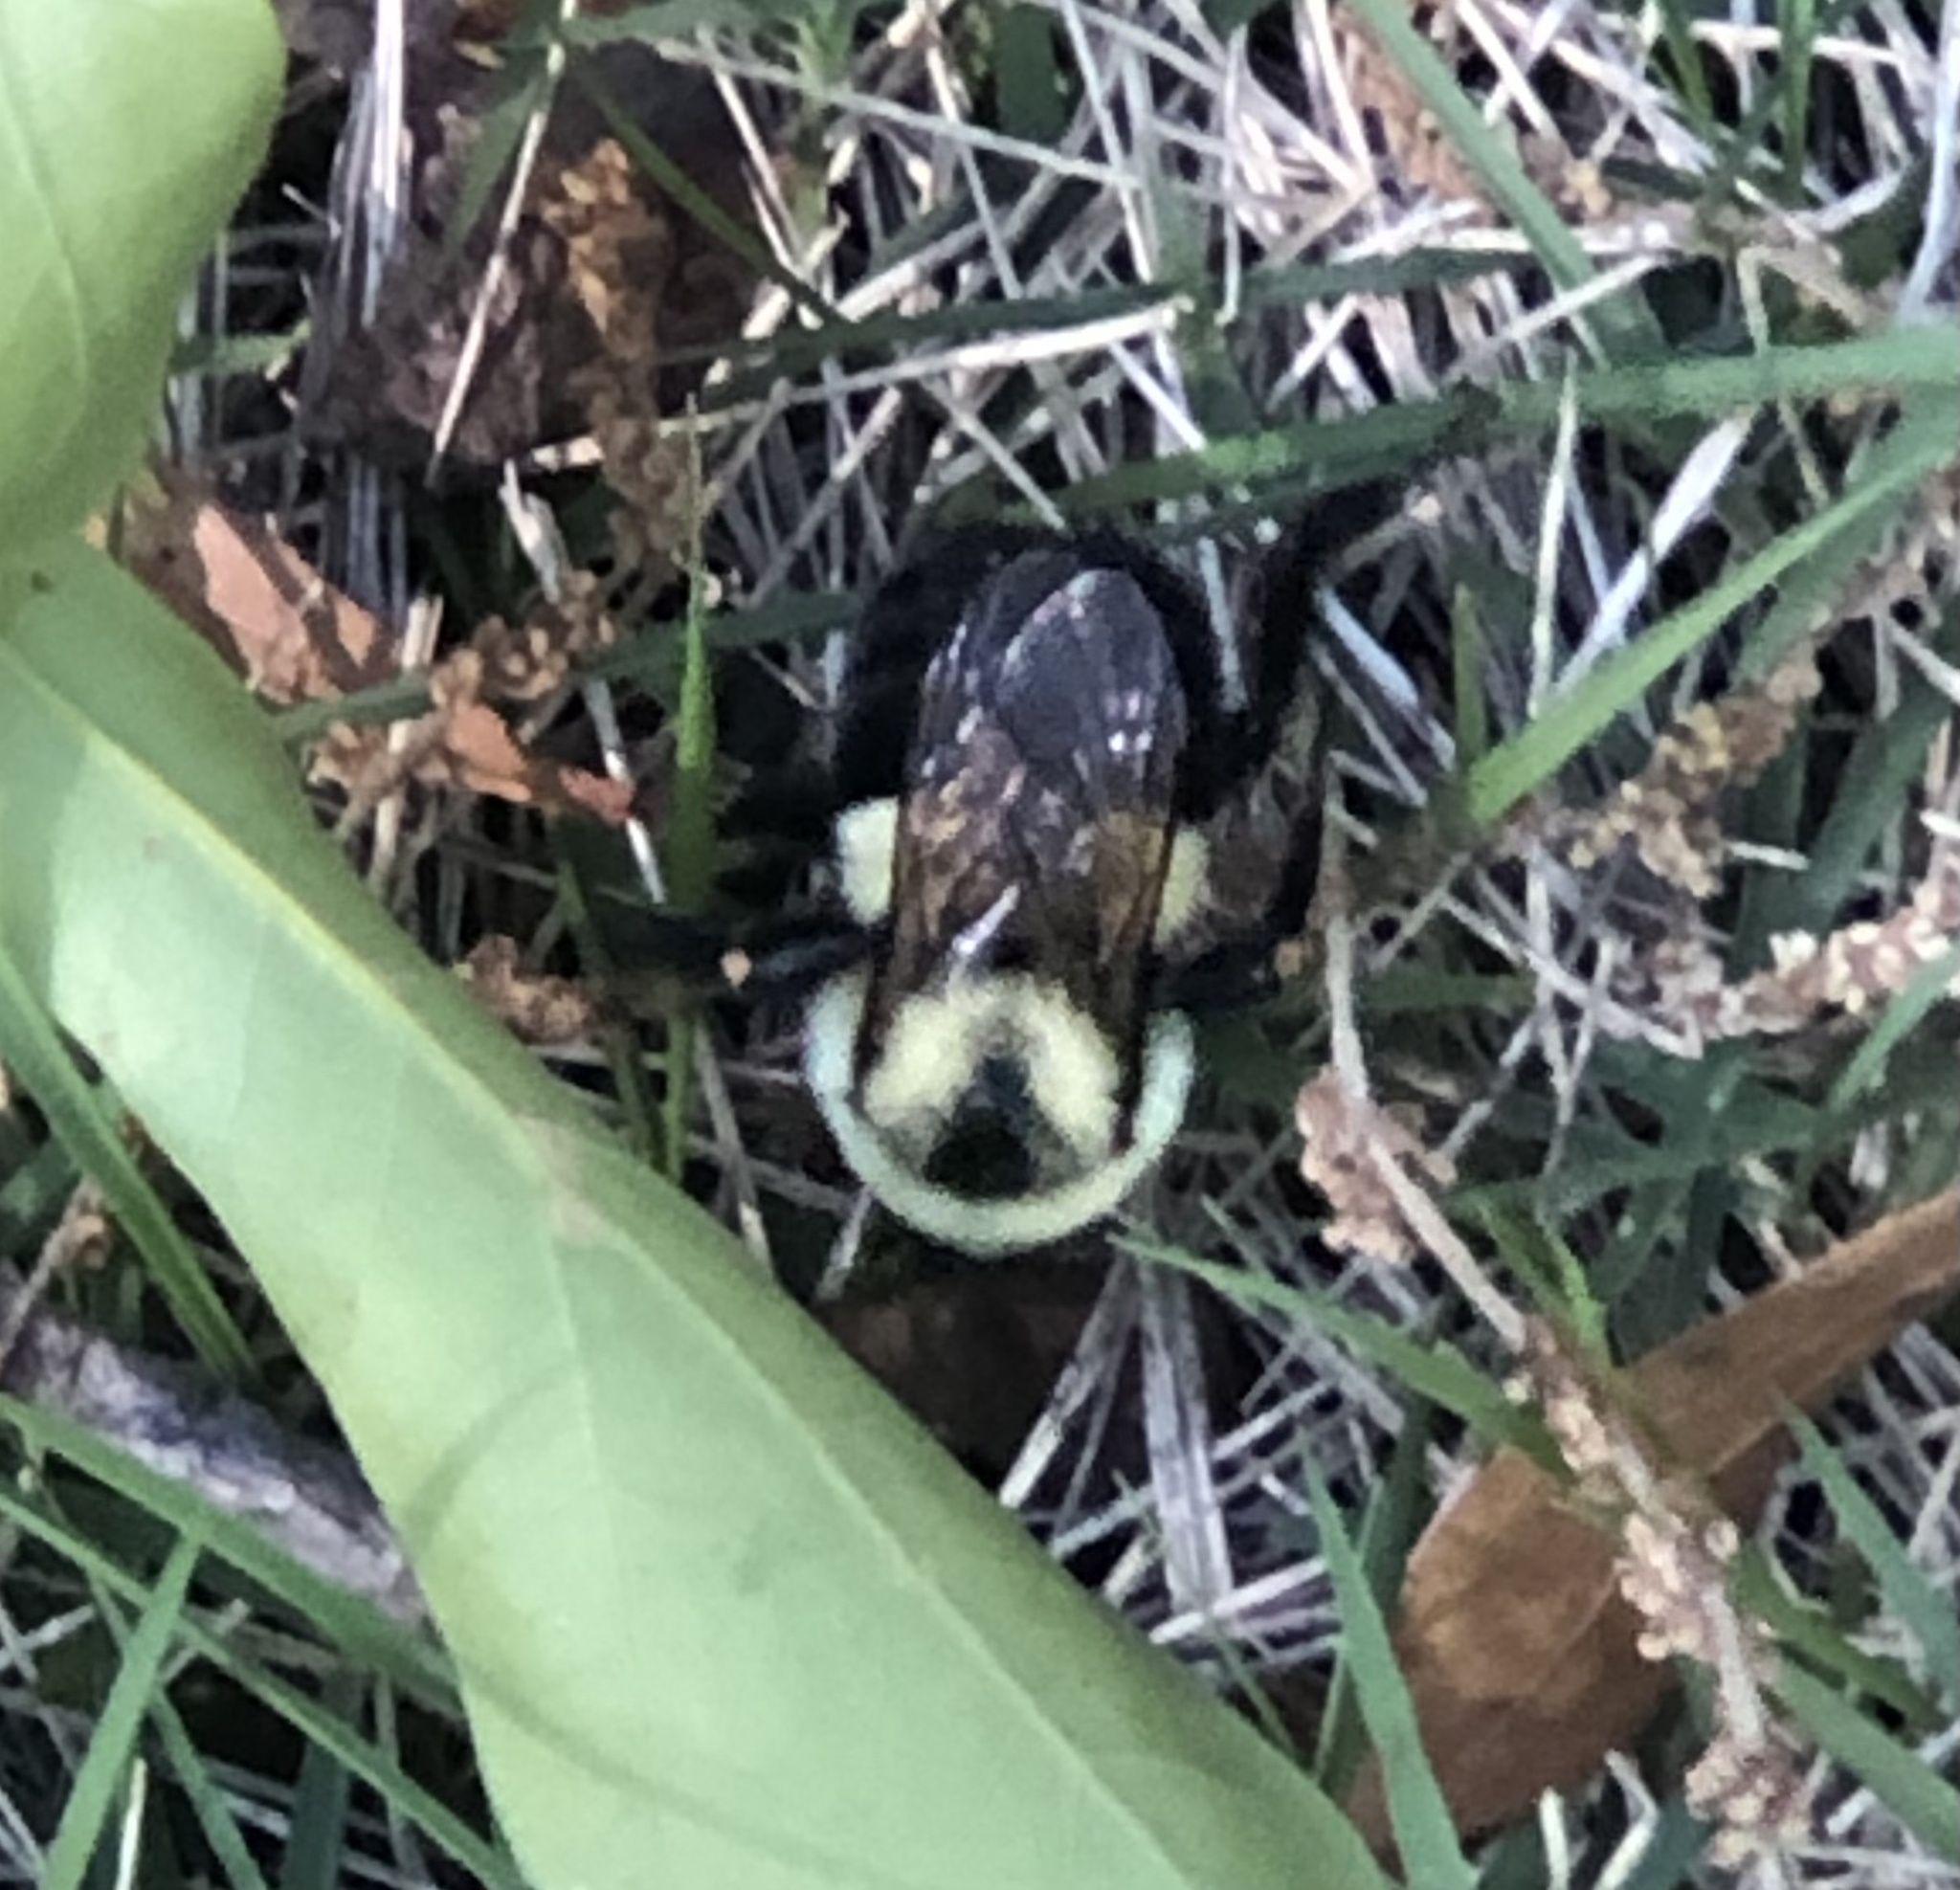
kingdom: Animalia
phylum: Arthropoda
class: Insecta
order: Hymenoptera
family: Apidae
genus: Bombus
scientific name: Bombus impatiens
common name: Common eastern bumble bee
